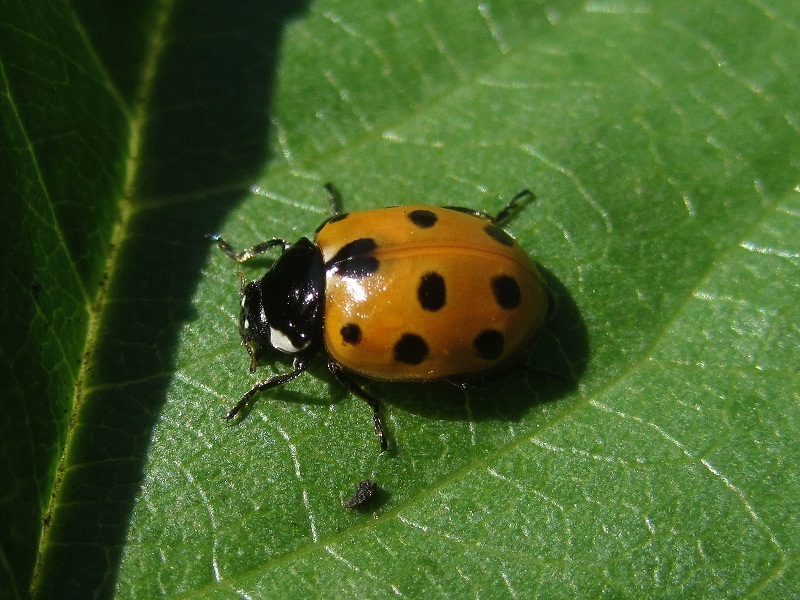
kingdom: Animalia
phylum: Arthropoda
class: Insecta
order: Coleoptera
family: Coccinellidae
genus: Coccinella
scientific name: Coccinella undecimpunctata
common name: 11-spot ladybird
